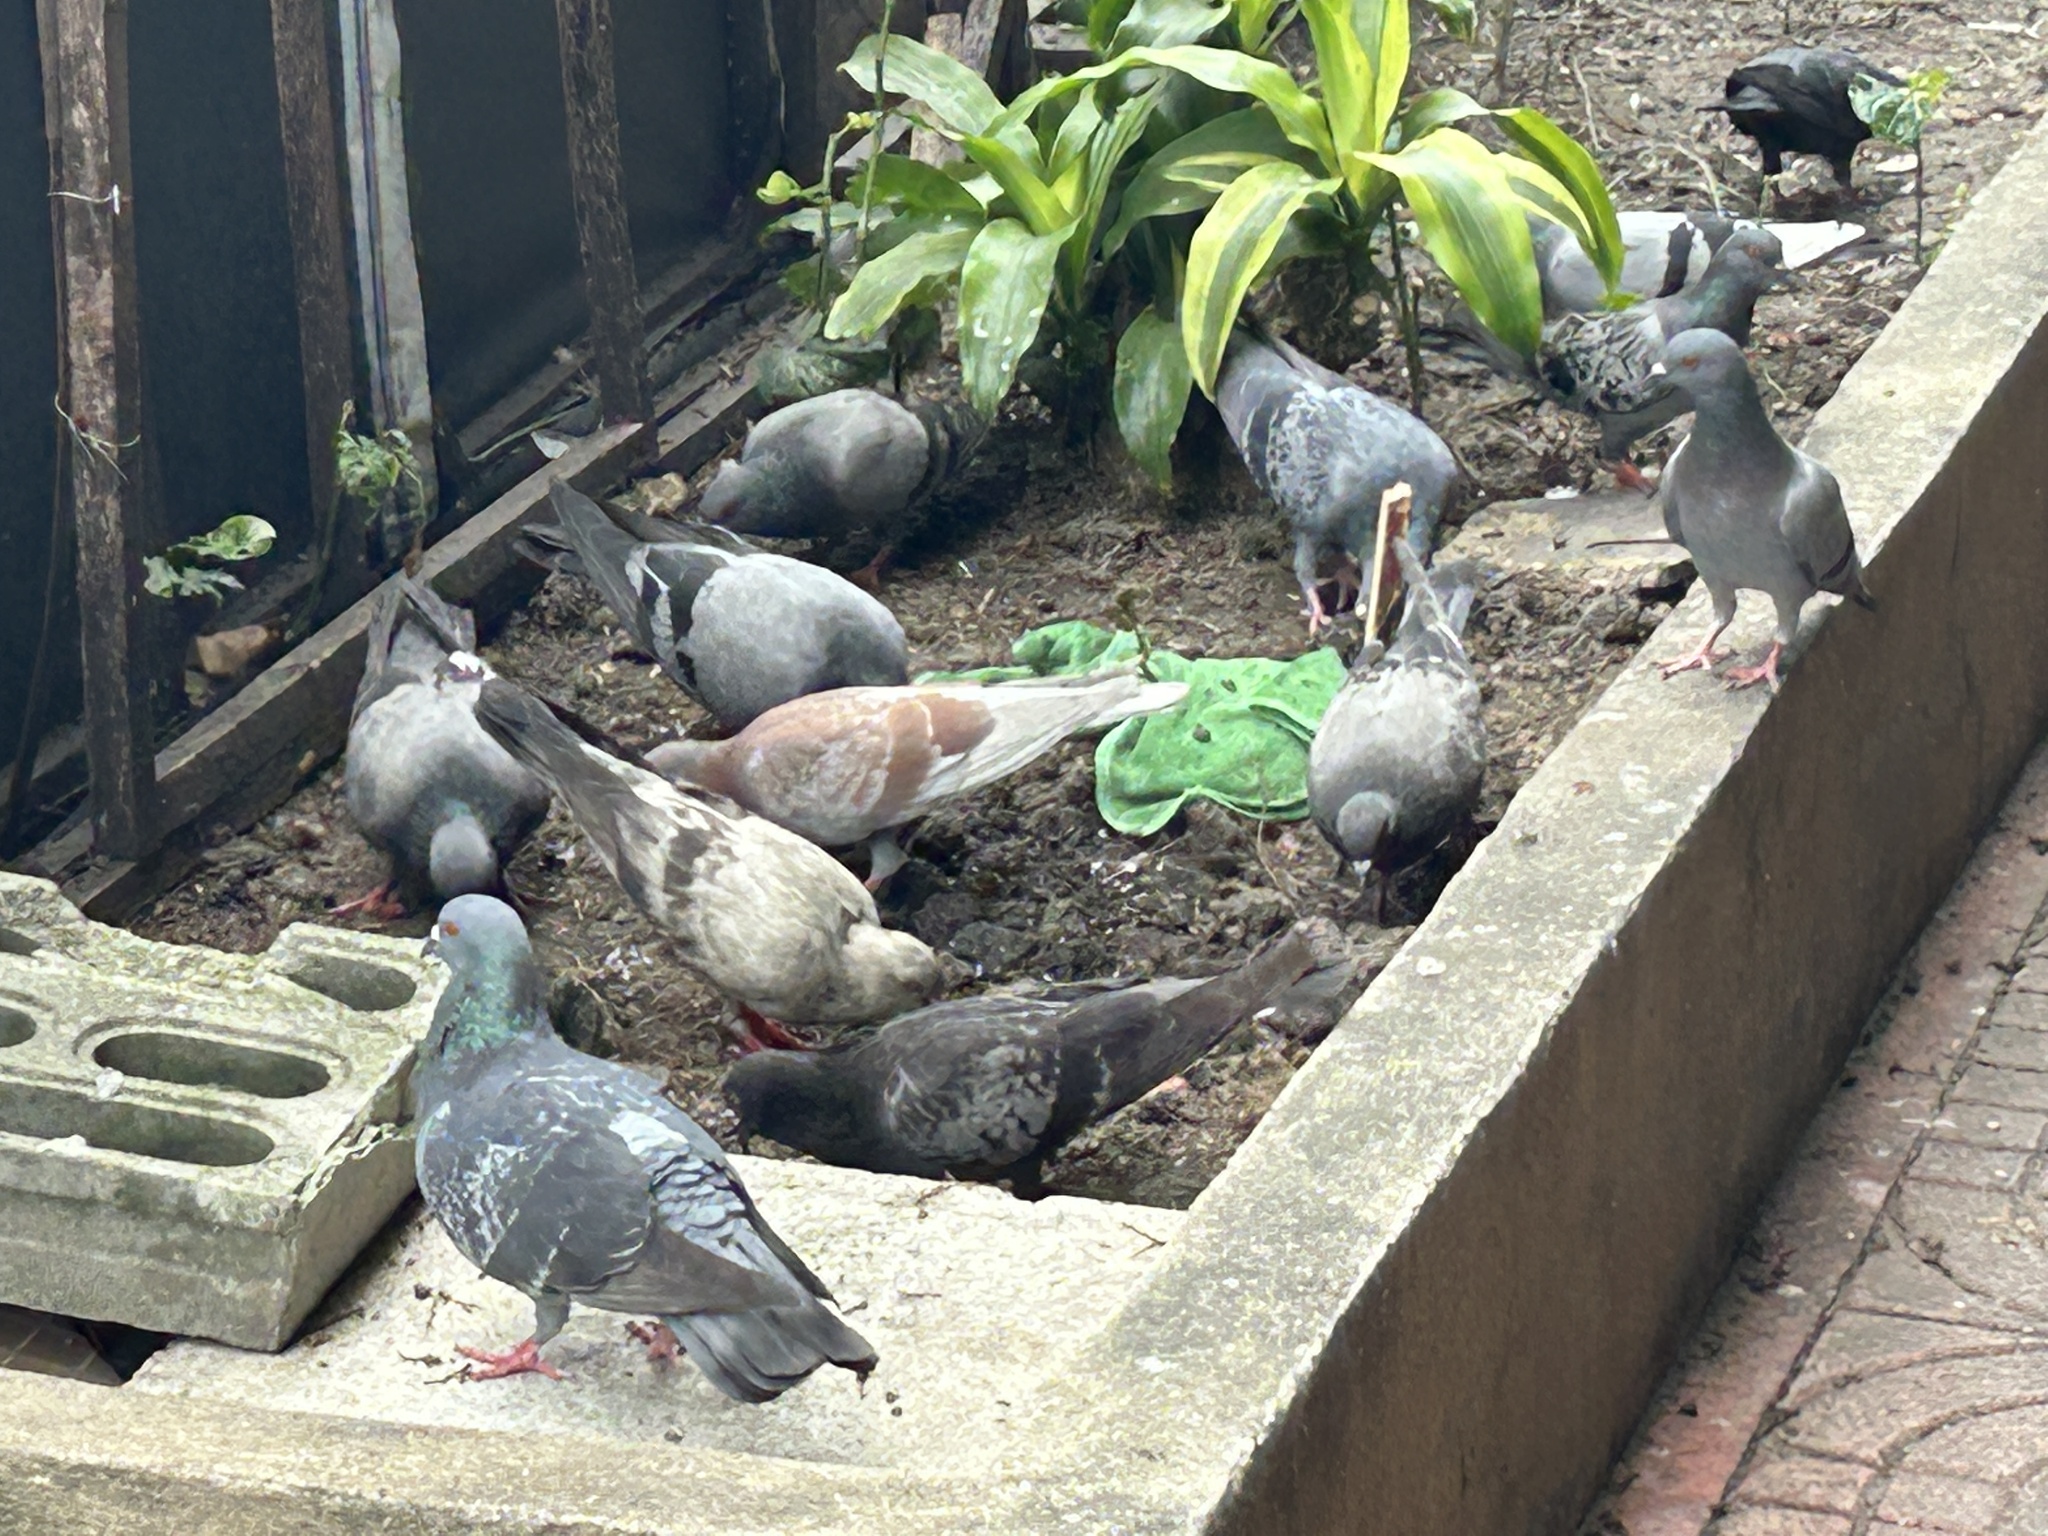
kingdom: Animalia
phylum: Chordata
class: Aves
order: Columbiformes
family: Columbidae
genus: Columba
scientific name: Columba livia
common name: Rock pigeon
